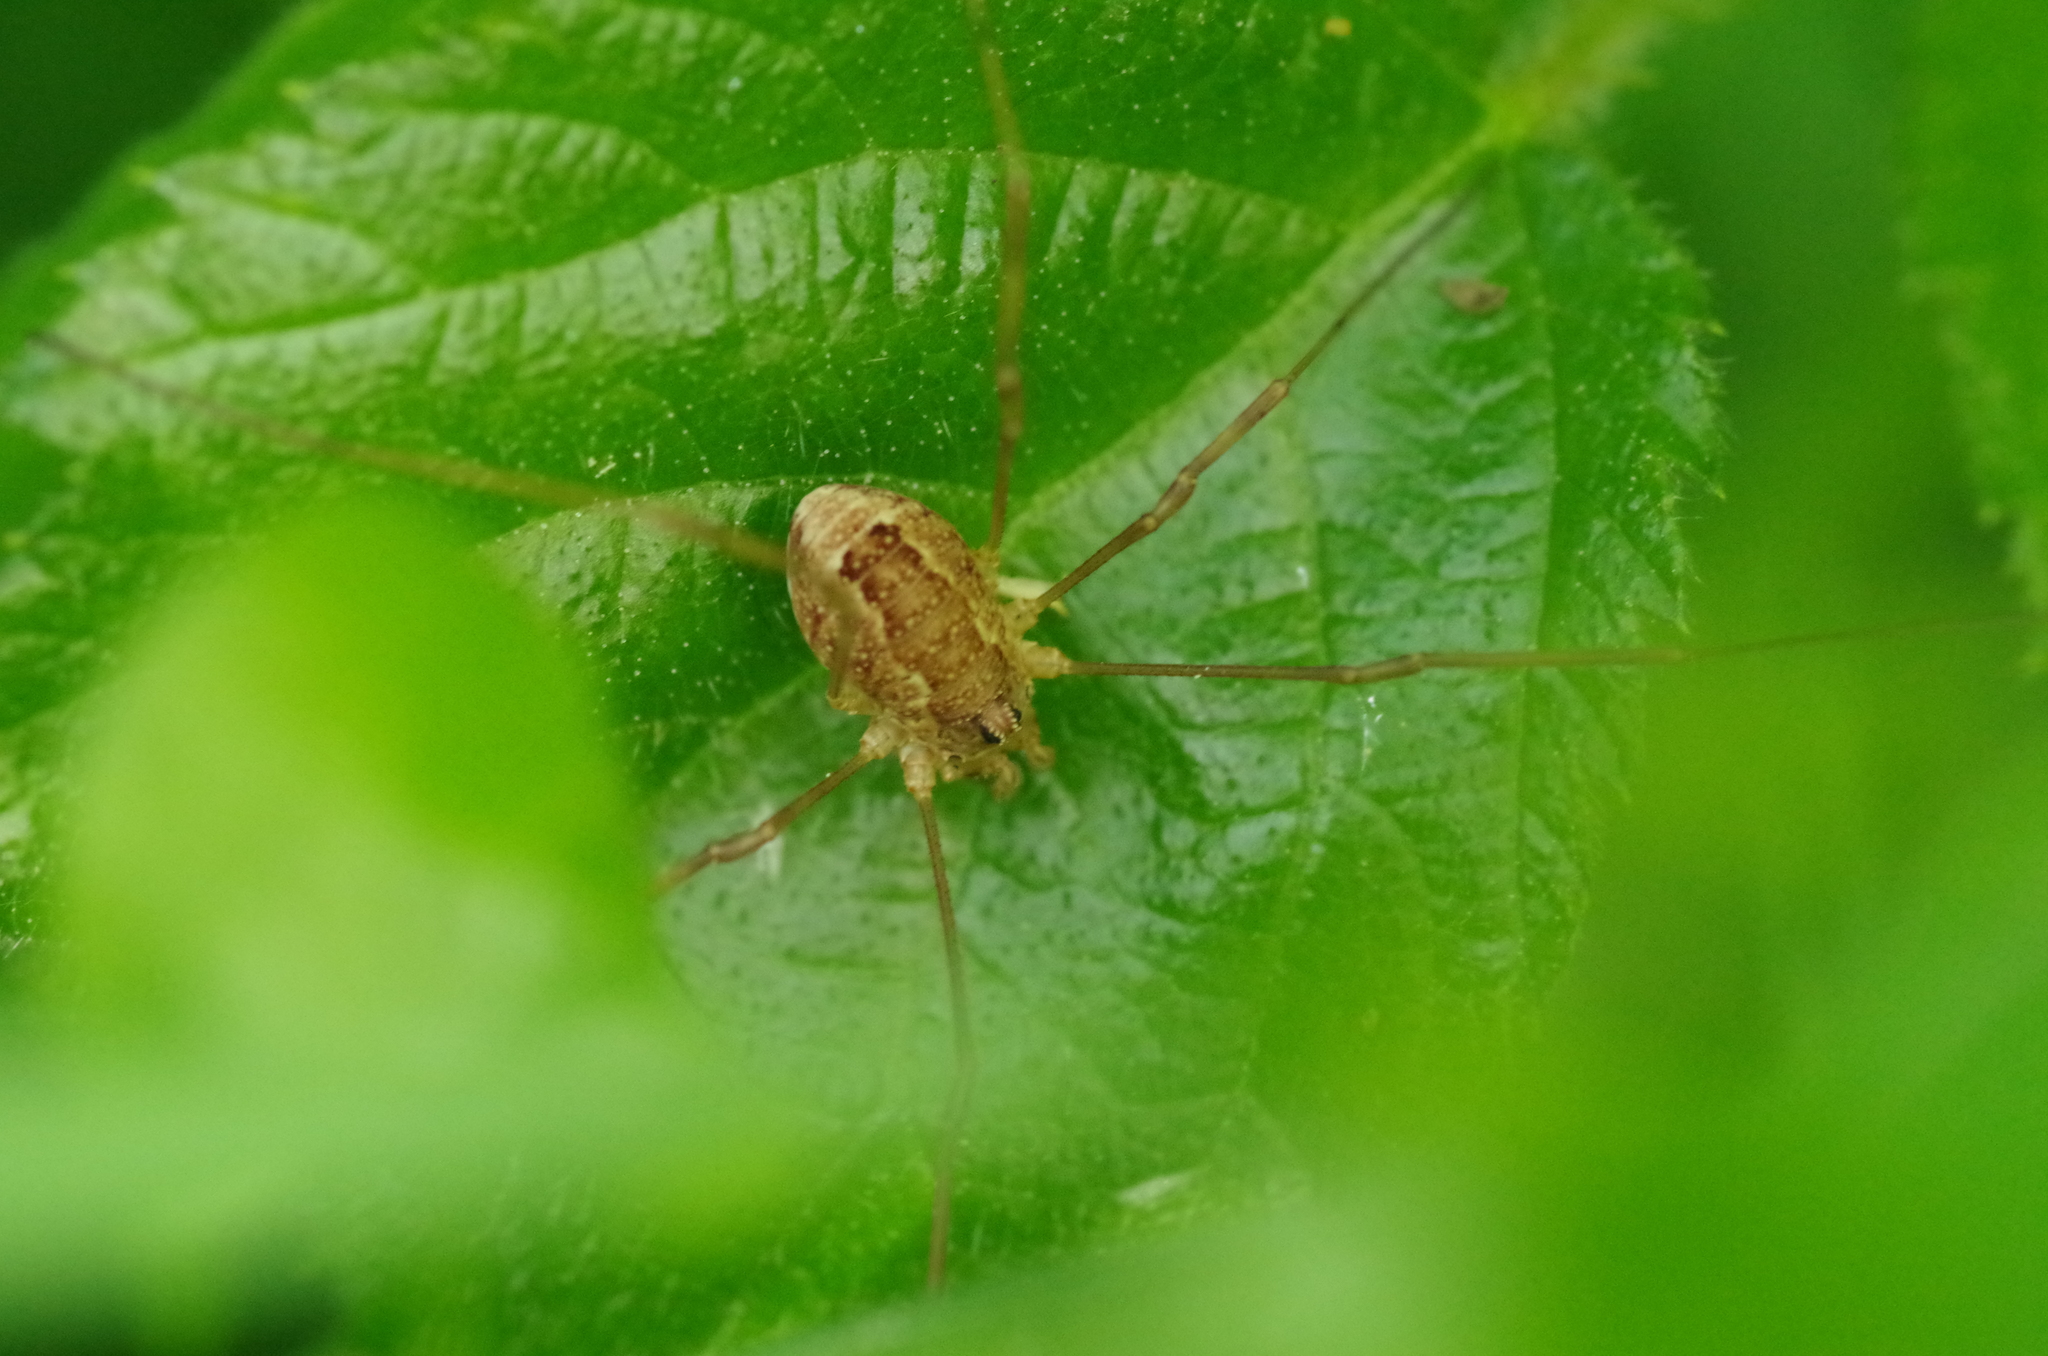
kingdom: Animalia
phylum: Arthropoda
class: Arachnida
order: Opiliones
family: Phalangiidae
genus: Rilaena
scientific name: Rilaena triangularis
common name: Spring harvestman
